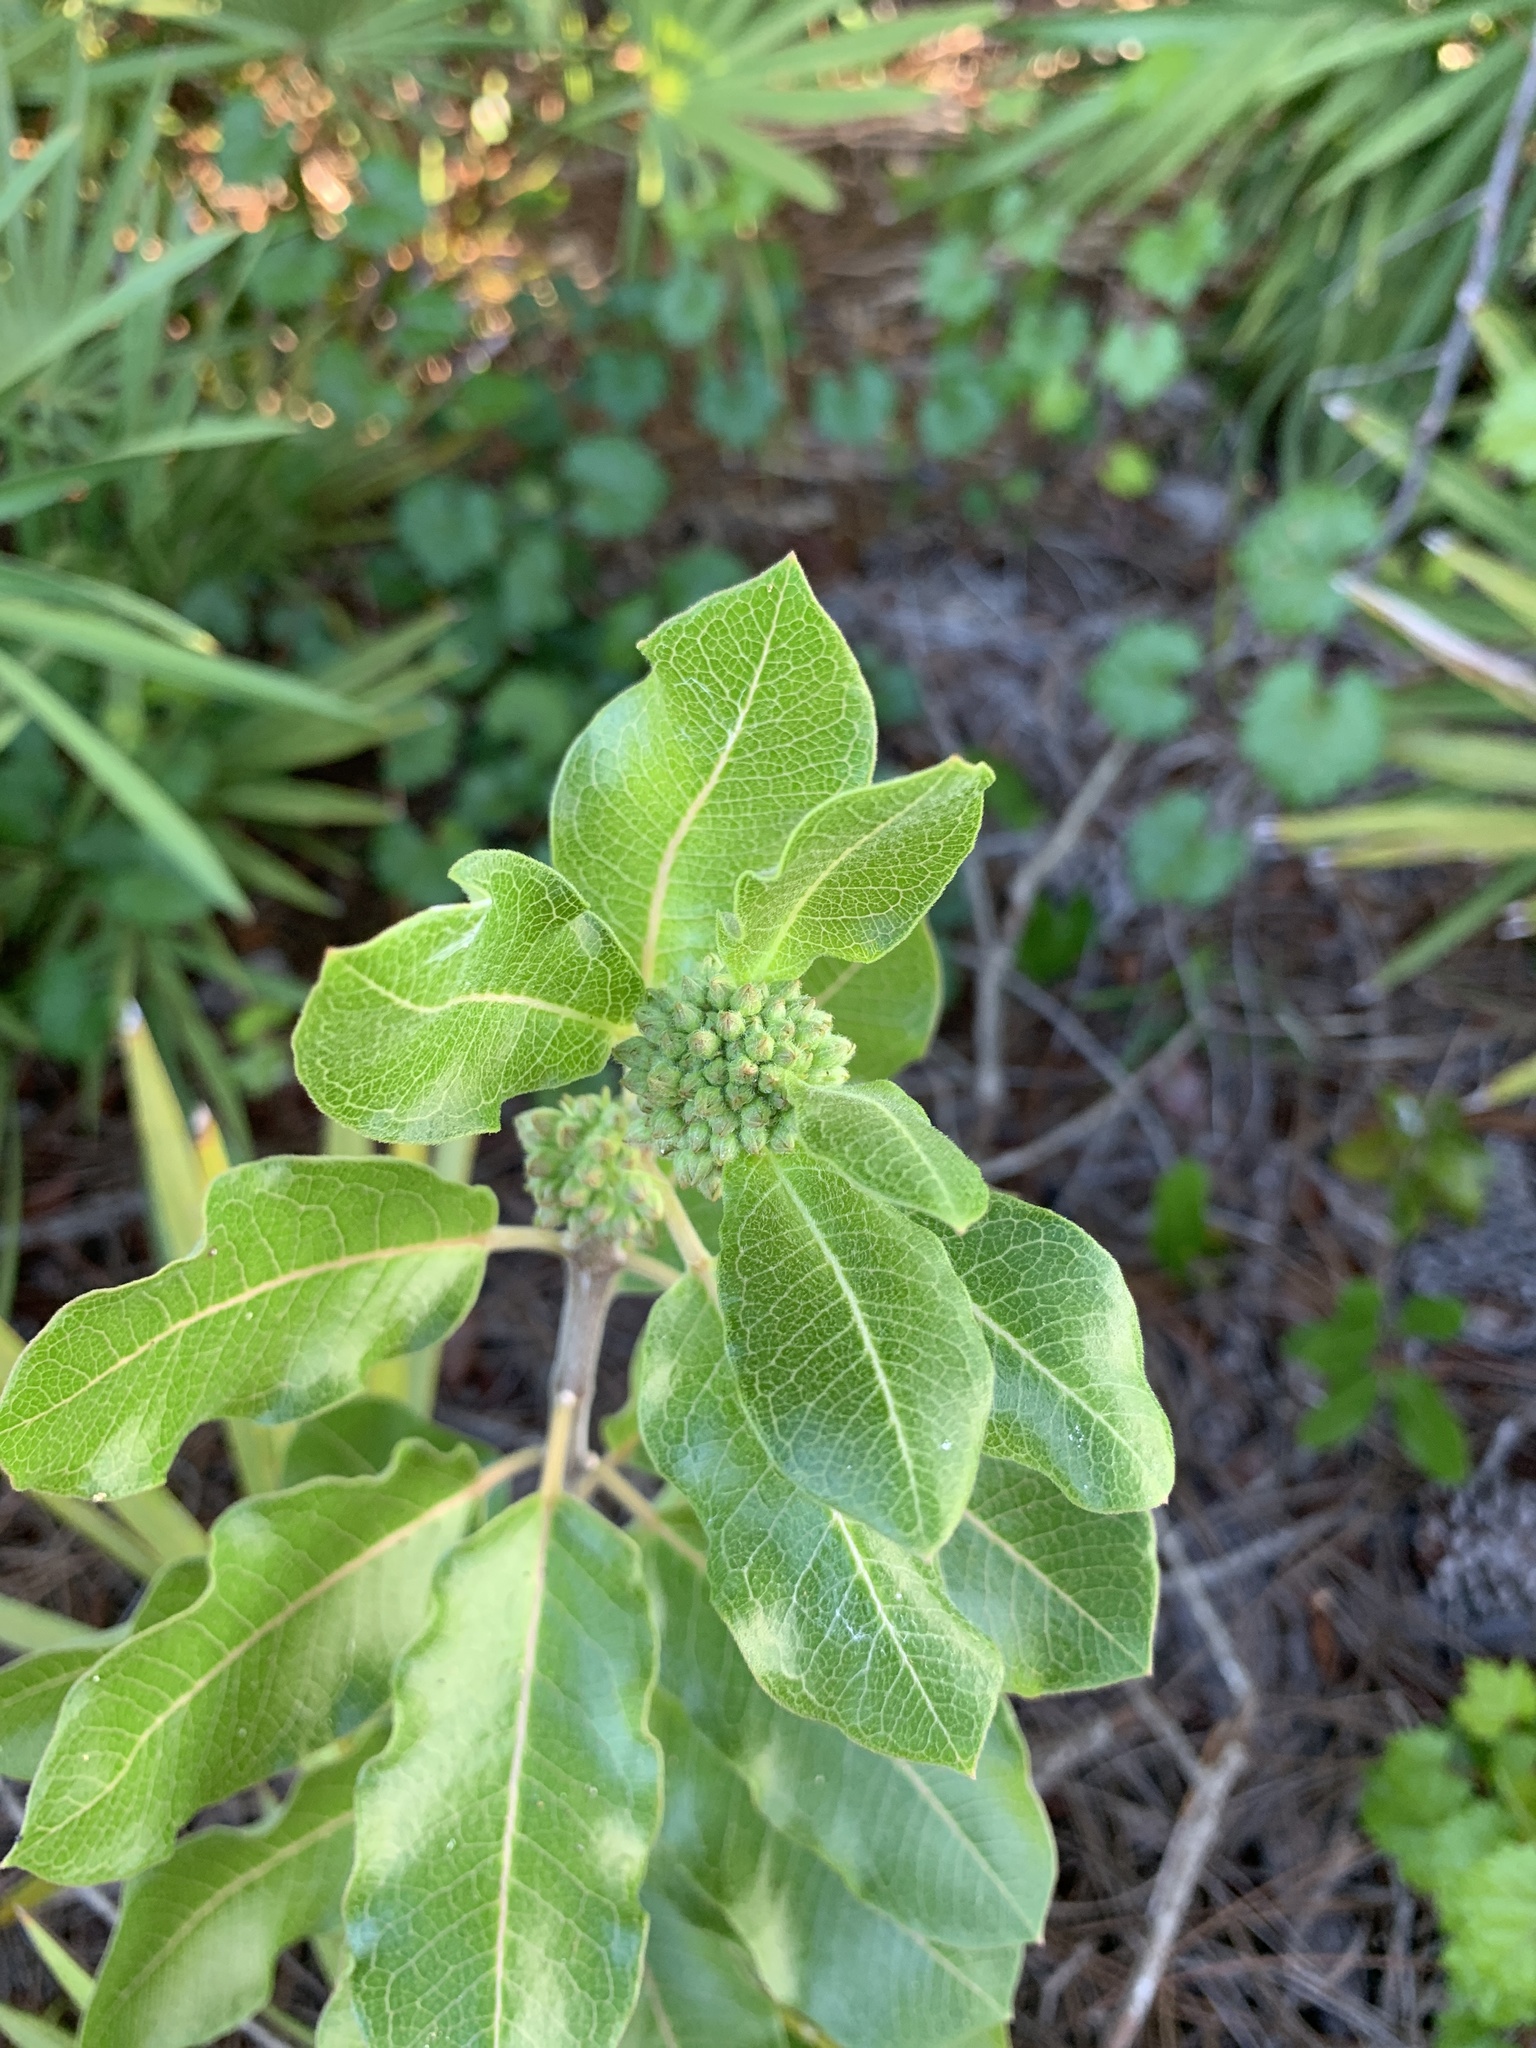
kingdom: Plantae
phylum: Tracheophyta
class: Magnoliopsida
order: Gentianales
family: Apocynaceae
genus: Asclepias
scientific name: Asclepias tomentosa
